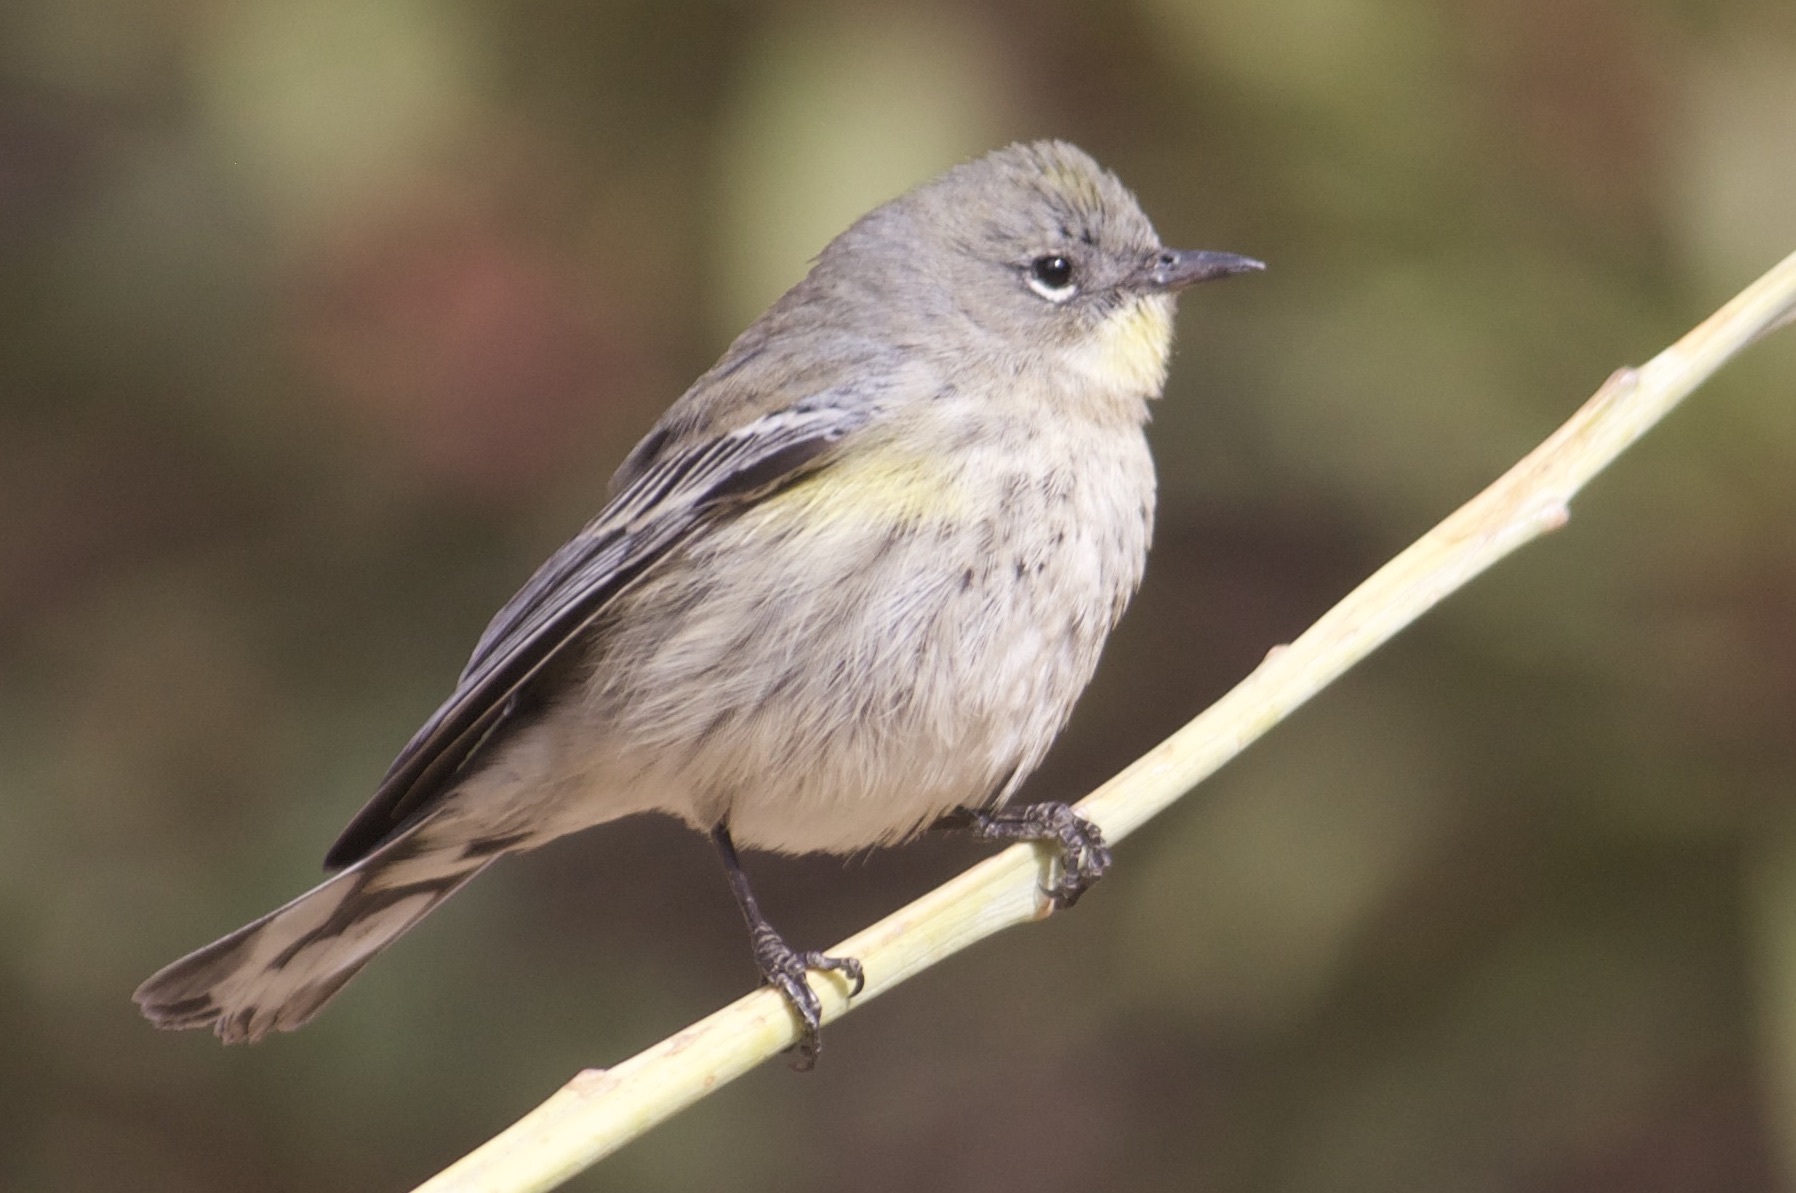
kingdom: Animalia
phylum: Chordata
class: Aves
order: Passeriformes
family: Parulidae
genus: Setophaga
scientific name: Setophaga coronata
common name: Myrtle warbler
